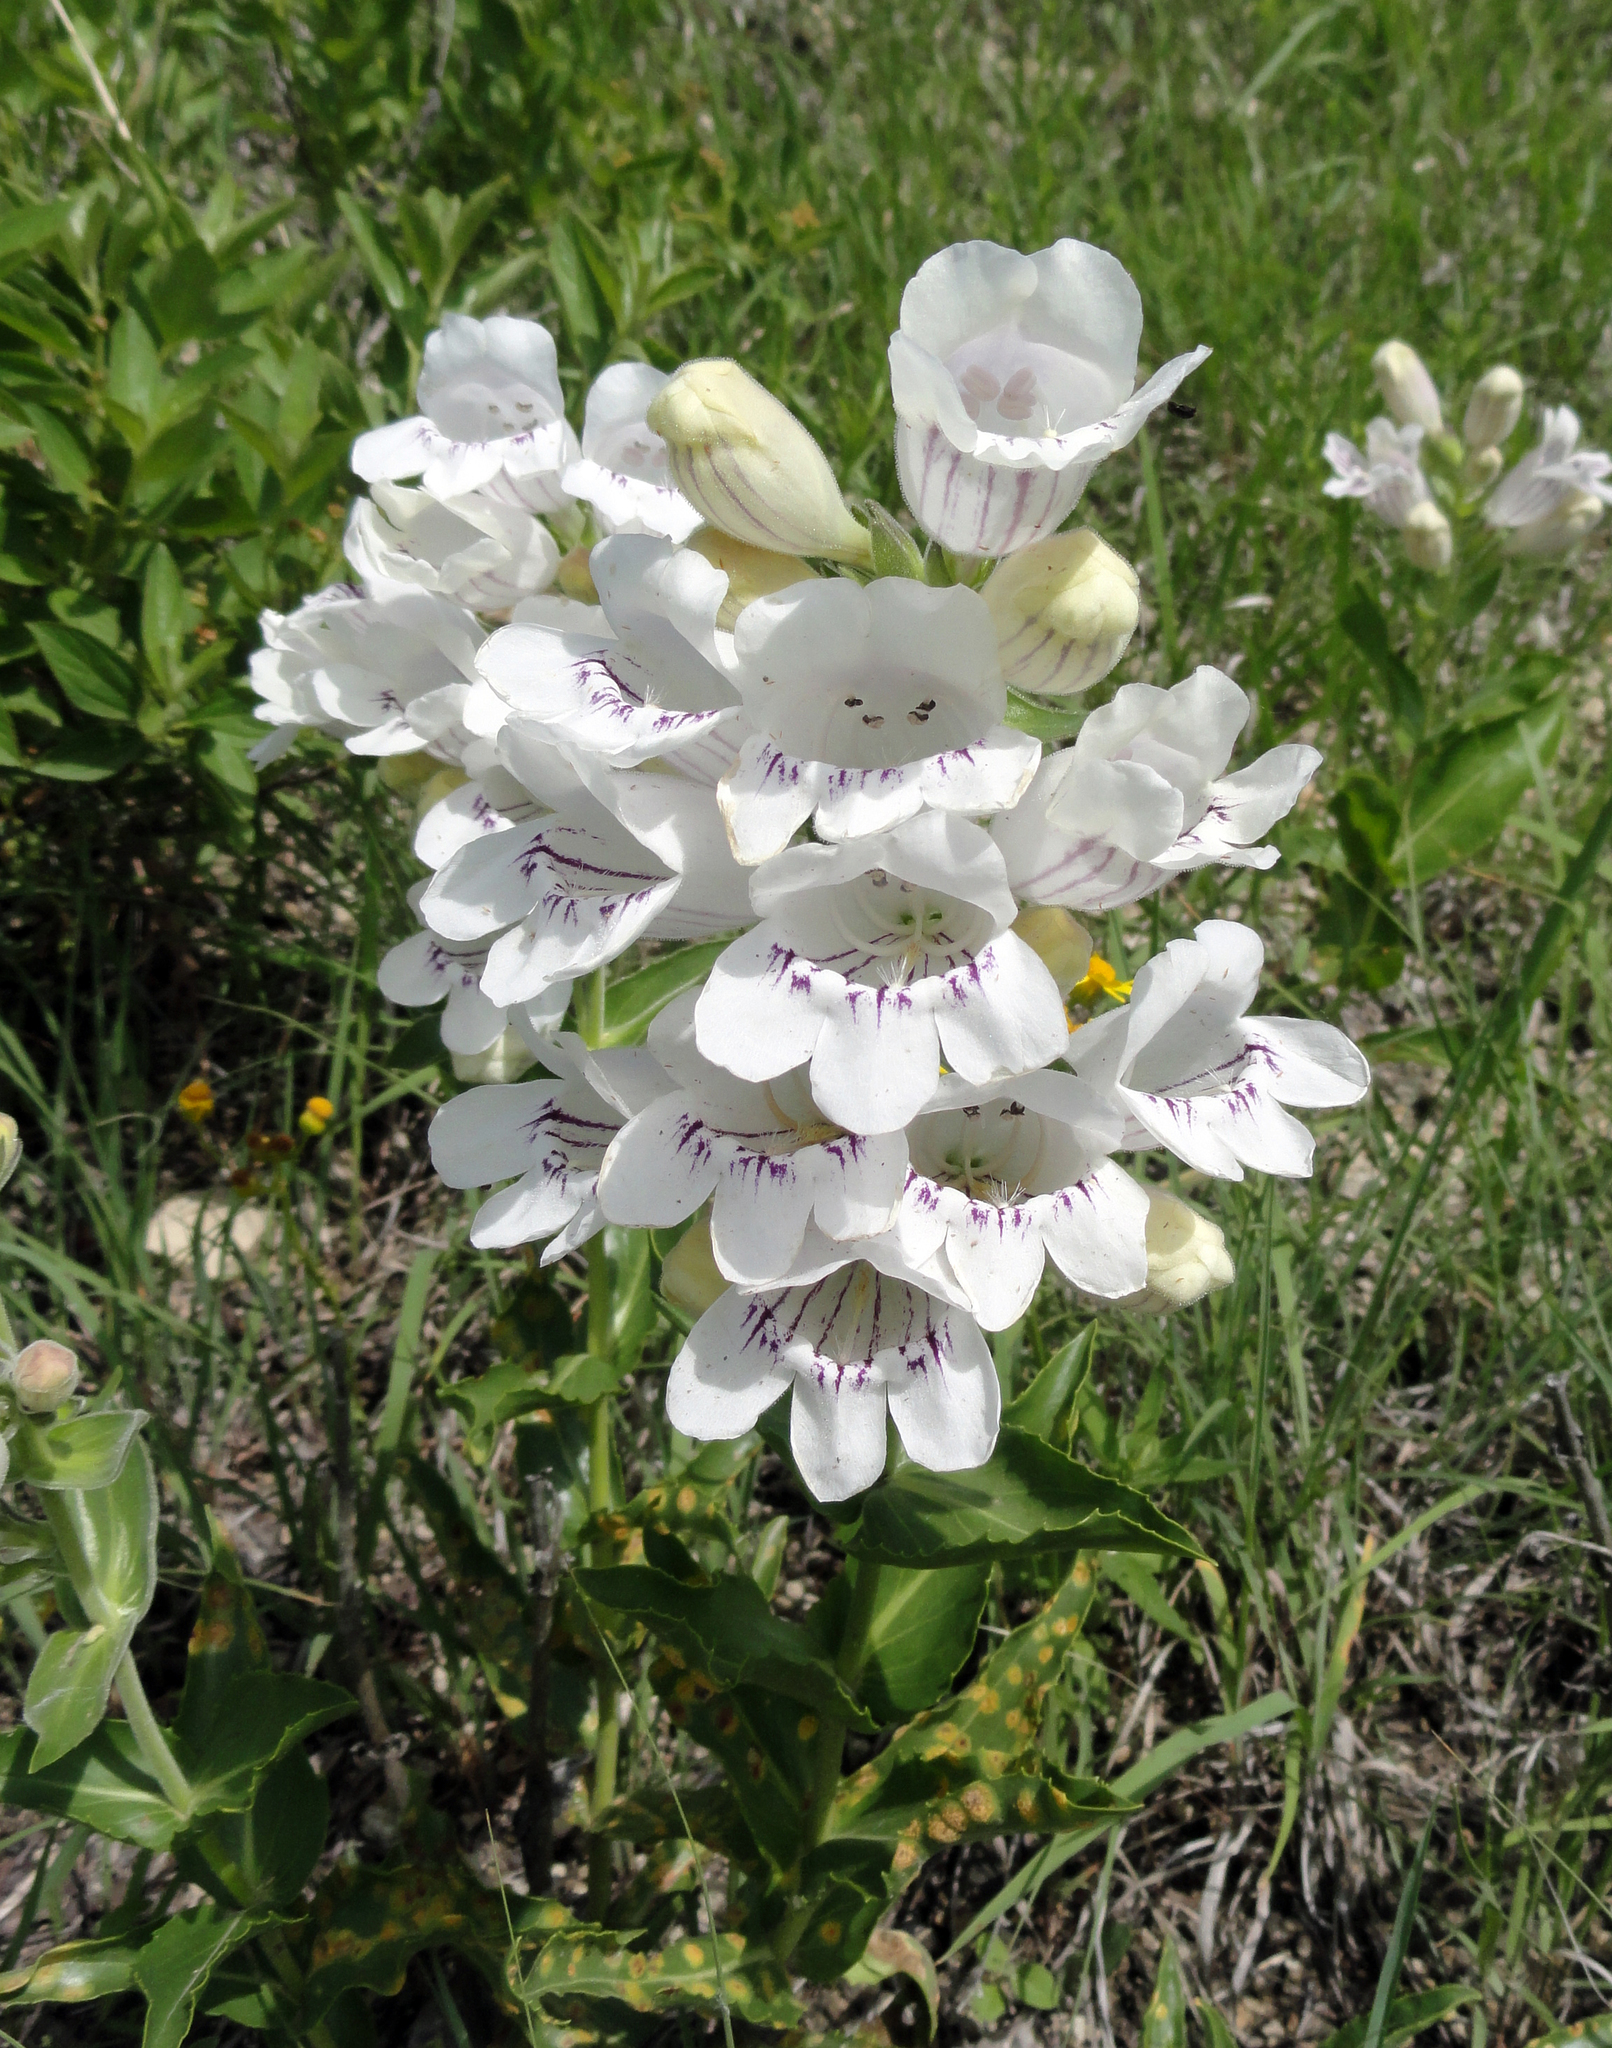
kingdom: Plantae
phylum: Tracheophyta
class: Magnoliopsida
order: Lamiales
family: Plantaginaceae
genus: Penstemon
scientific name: Penstemon cobaea
